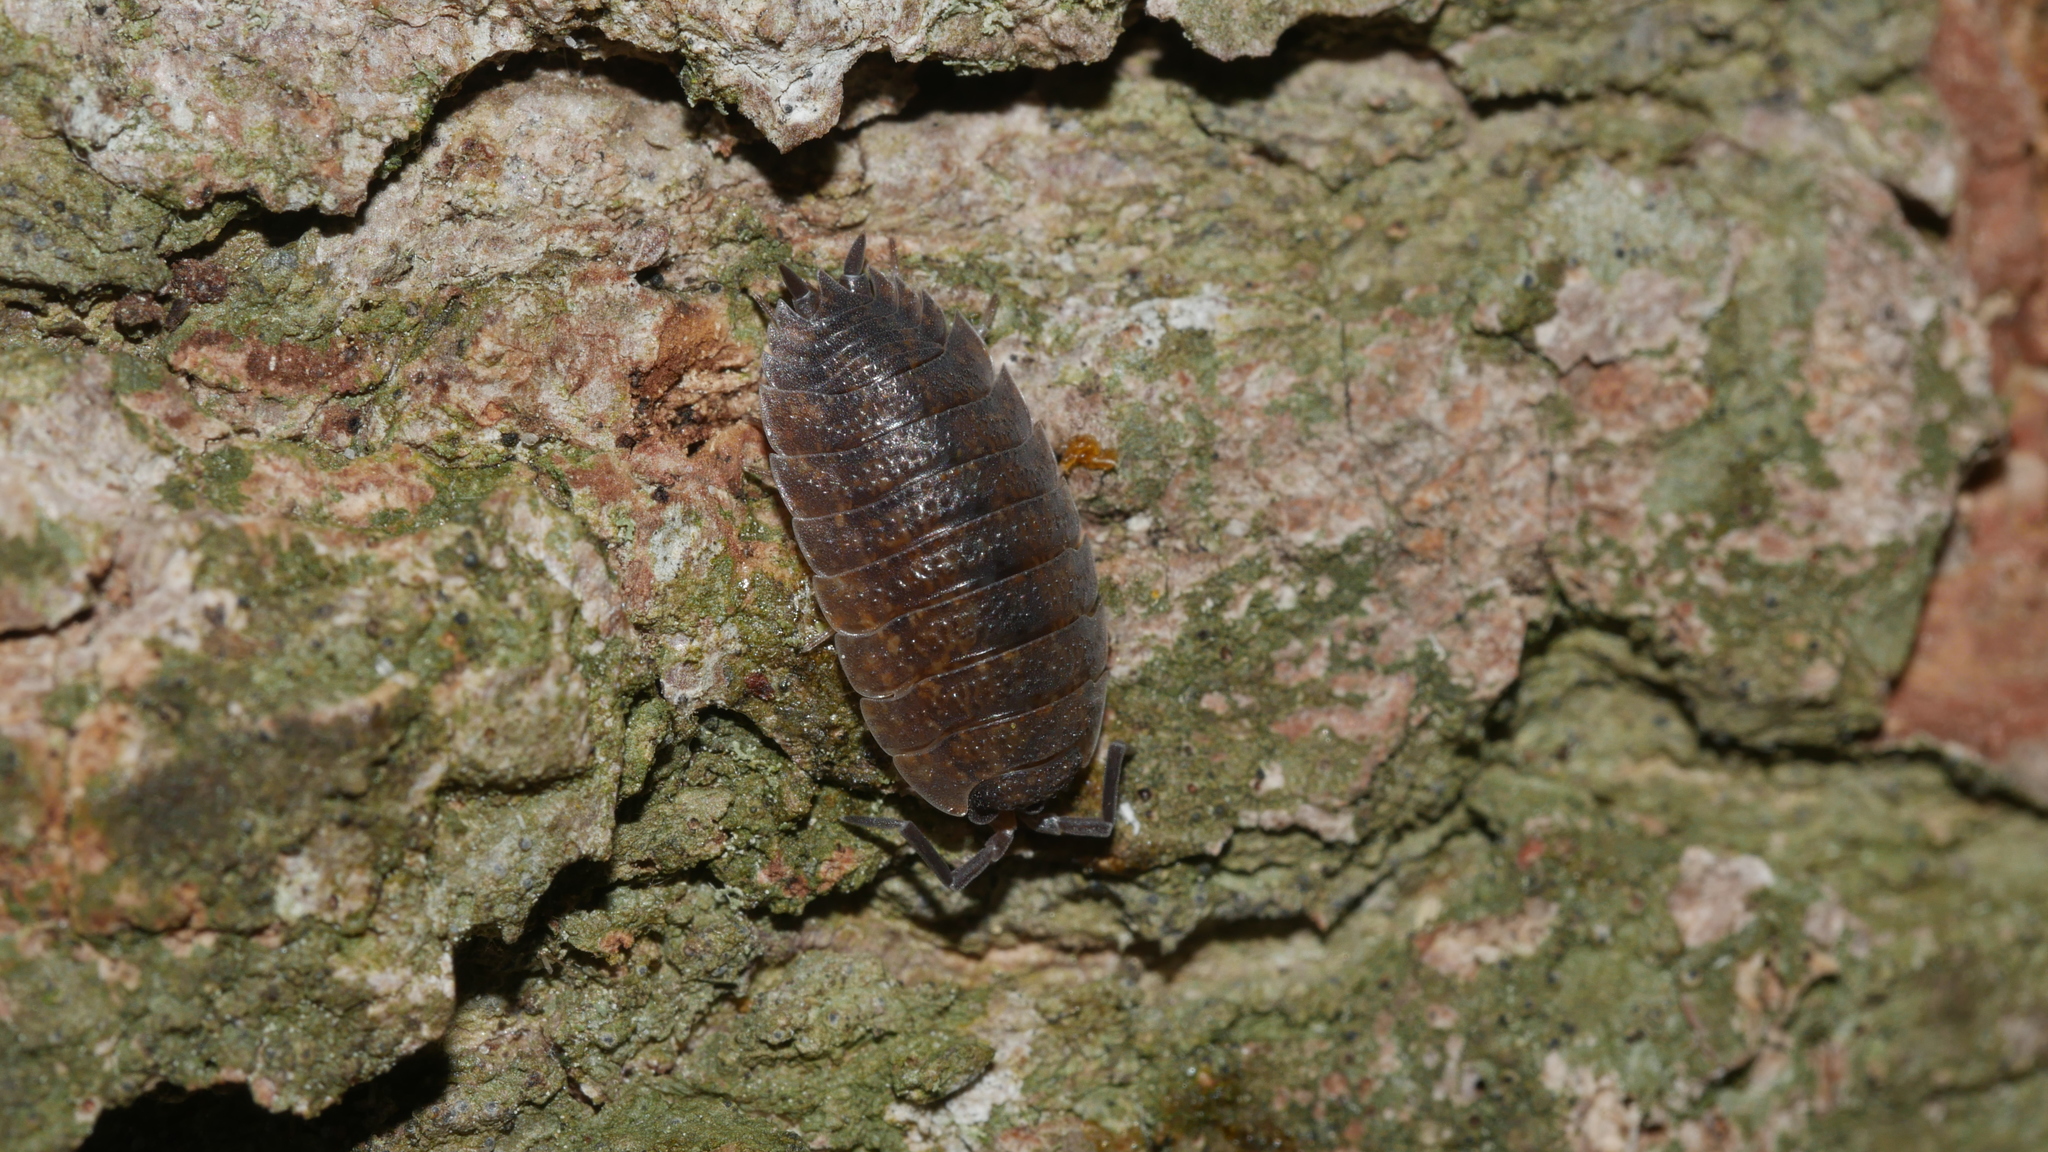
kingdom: Animalia
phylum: Arthropoda
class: Malacostraca
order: Isopoda
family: Porcellionidae
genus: Porcellio
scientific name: Porcellio scaber
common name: Common rough woodlouse
